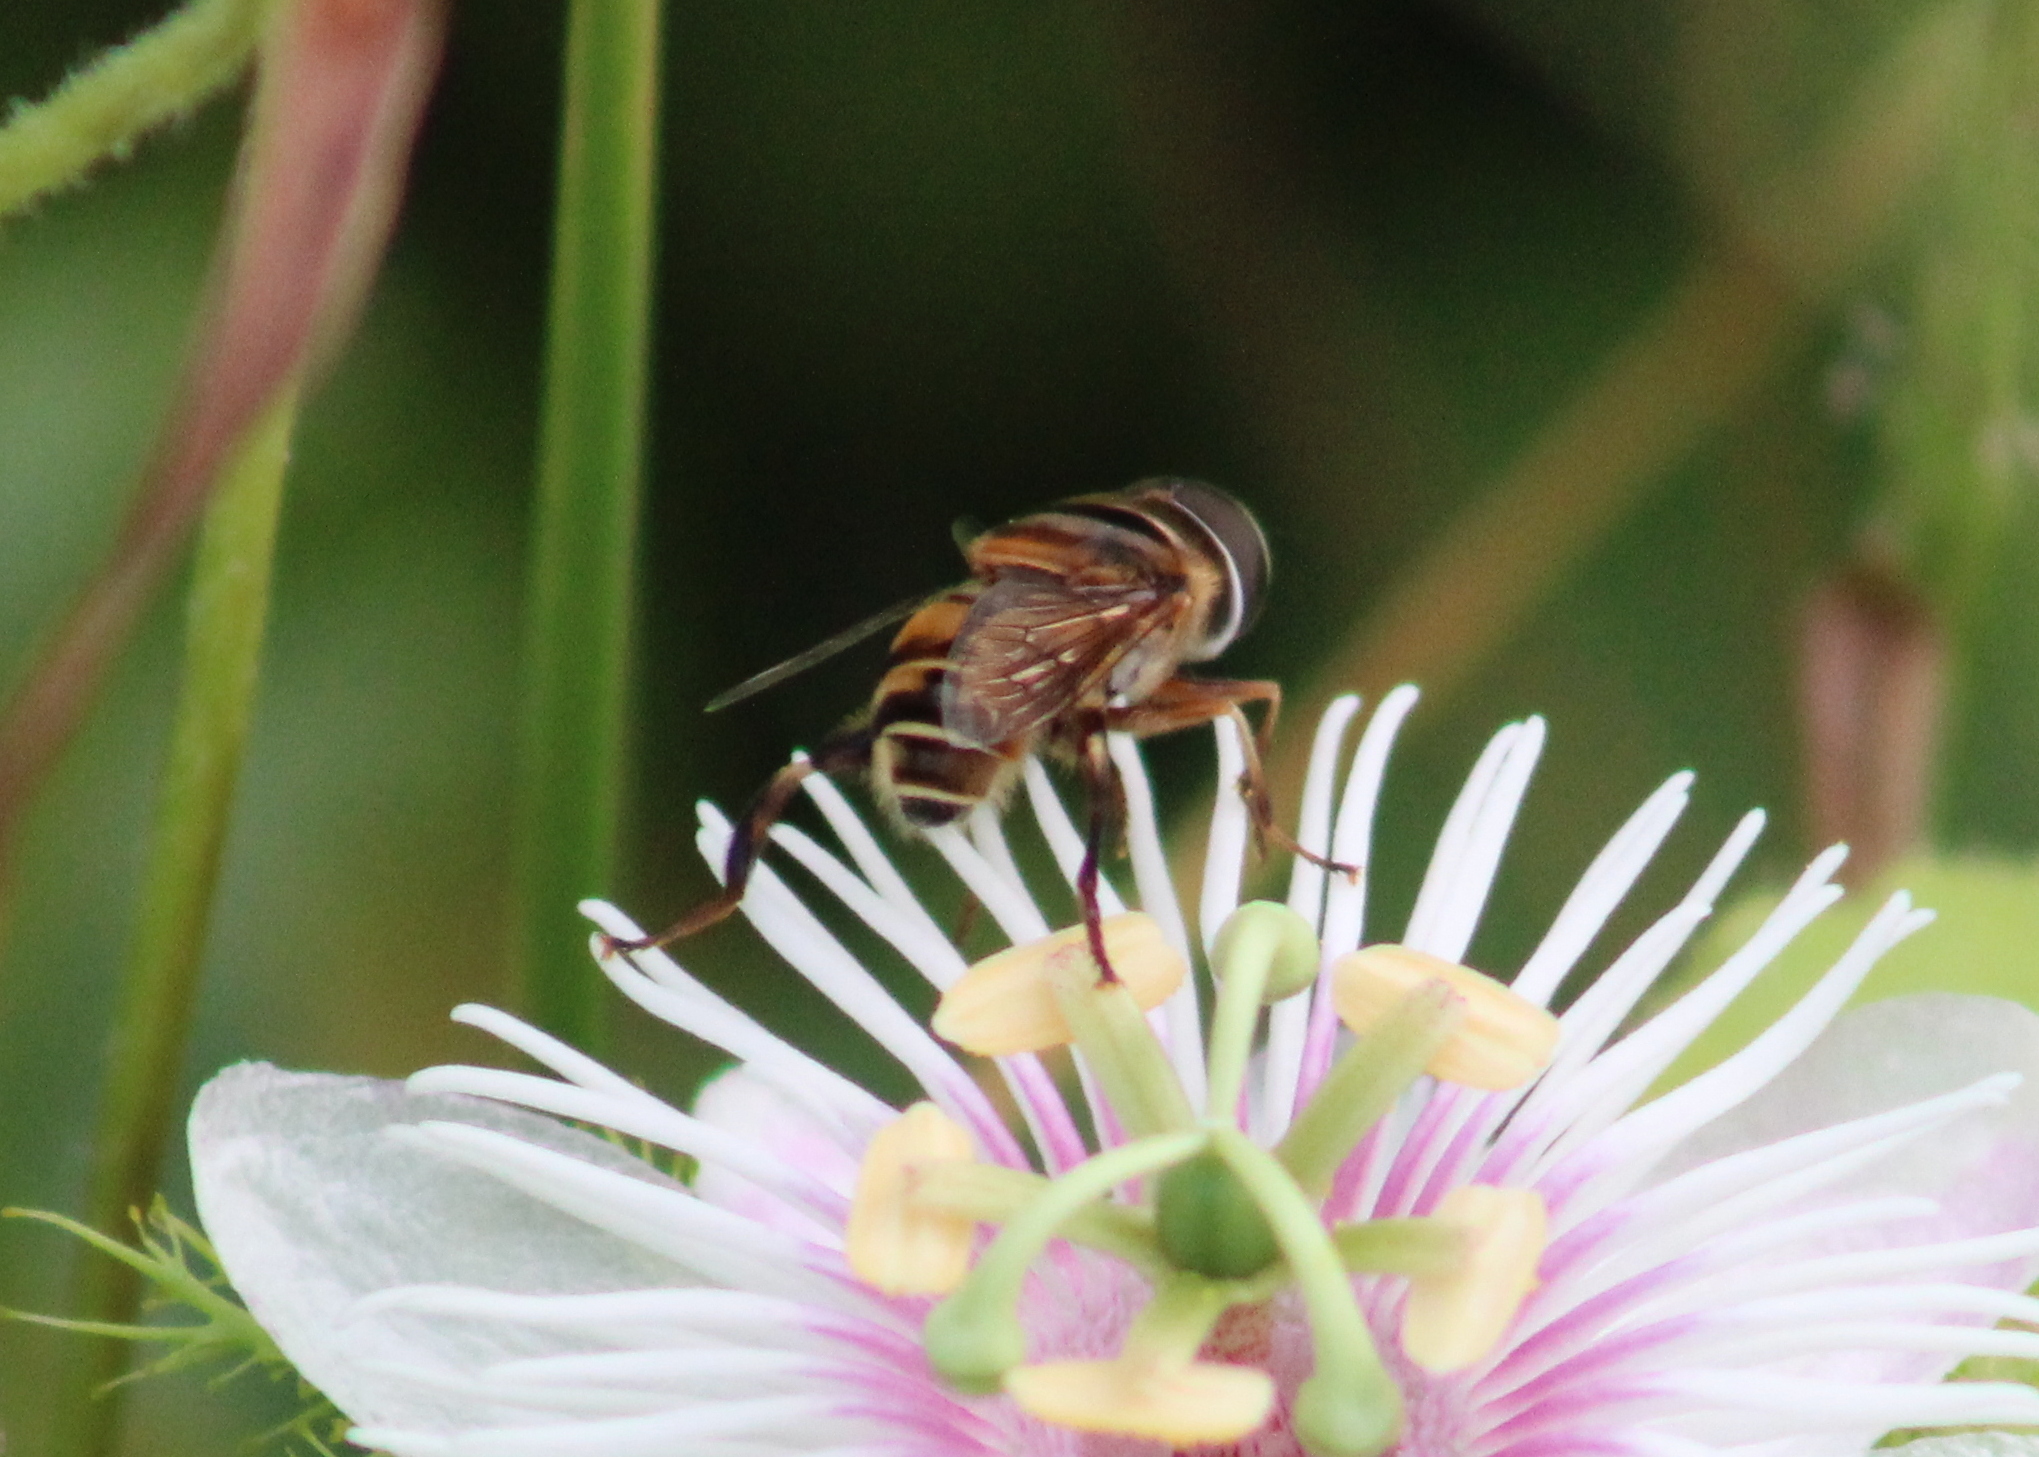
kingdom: Animalia
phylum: Arthropoda
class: Insecta
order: Diptera
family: Syrphidae
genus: Palpada
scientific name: Palpada vinetorum
